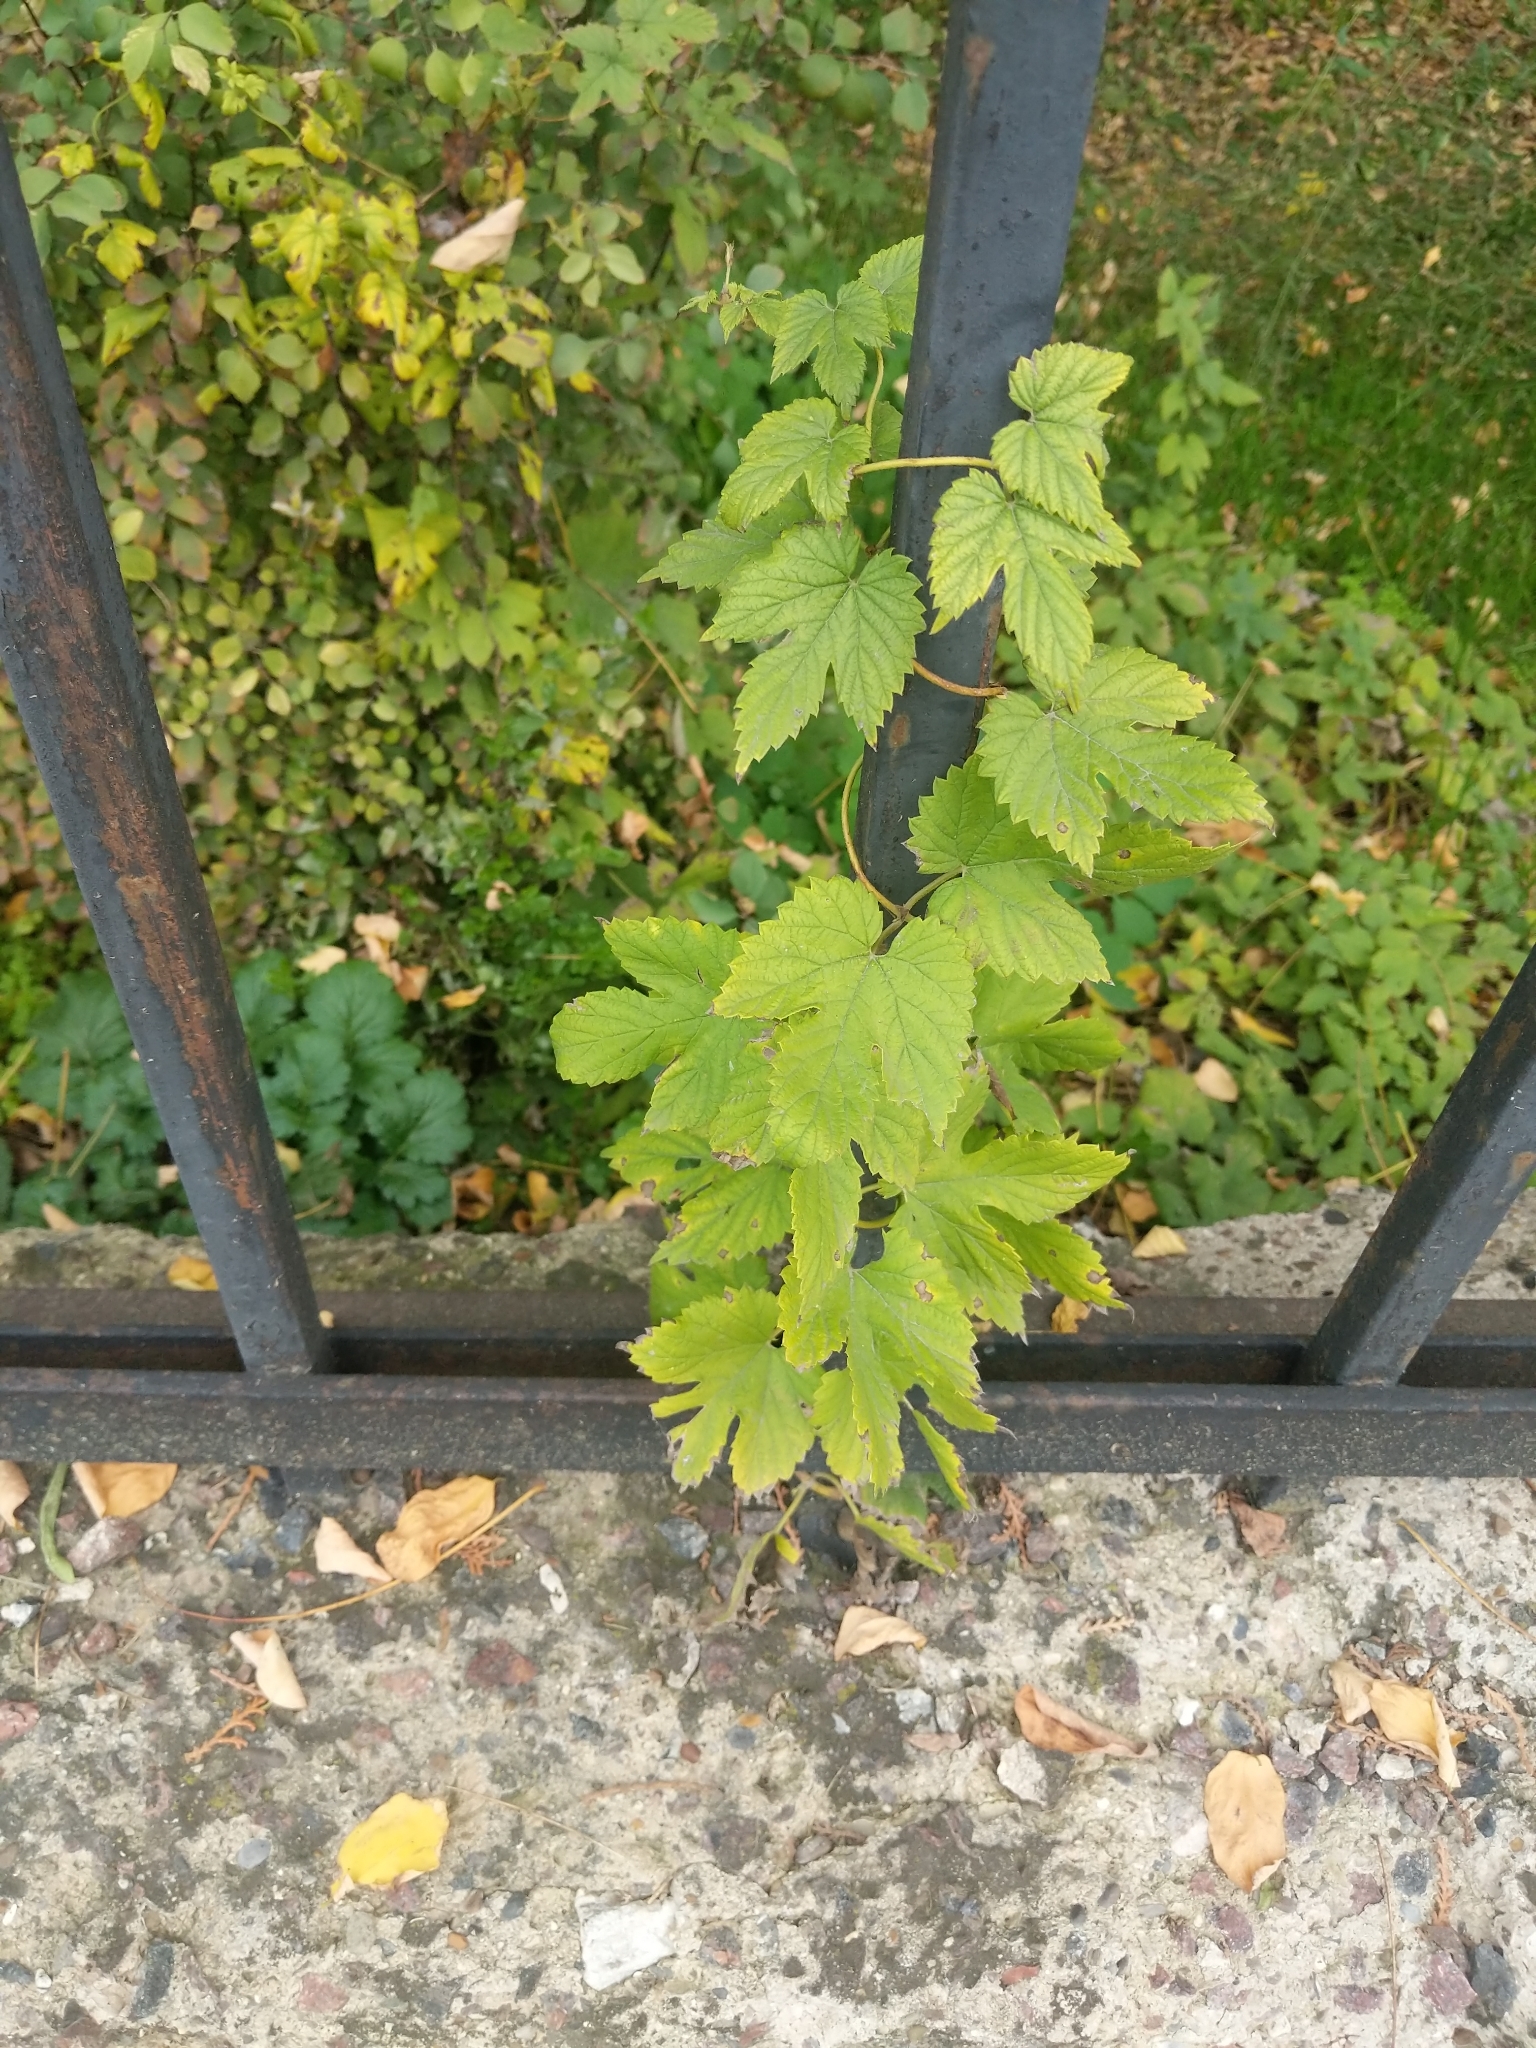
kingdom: Plantae
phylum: Tracheophyta
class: Magnoliopsida
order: Rosales
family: Cannabaceae
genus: Humulus
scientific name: Humulus lupulus
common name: Hop
